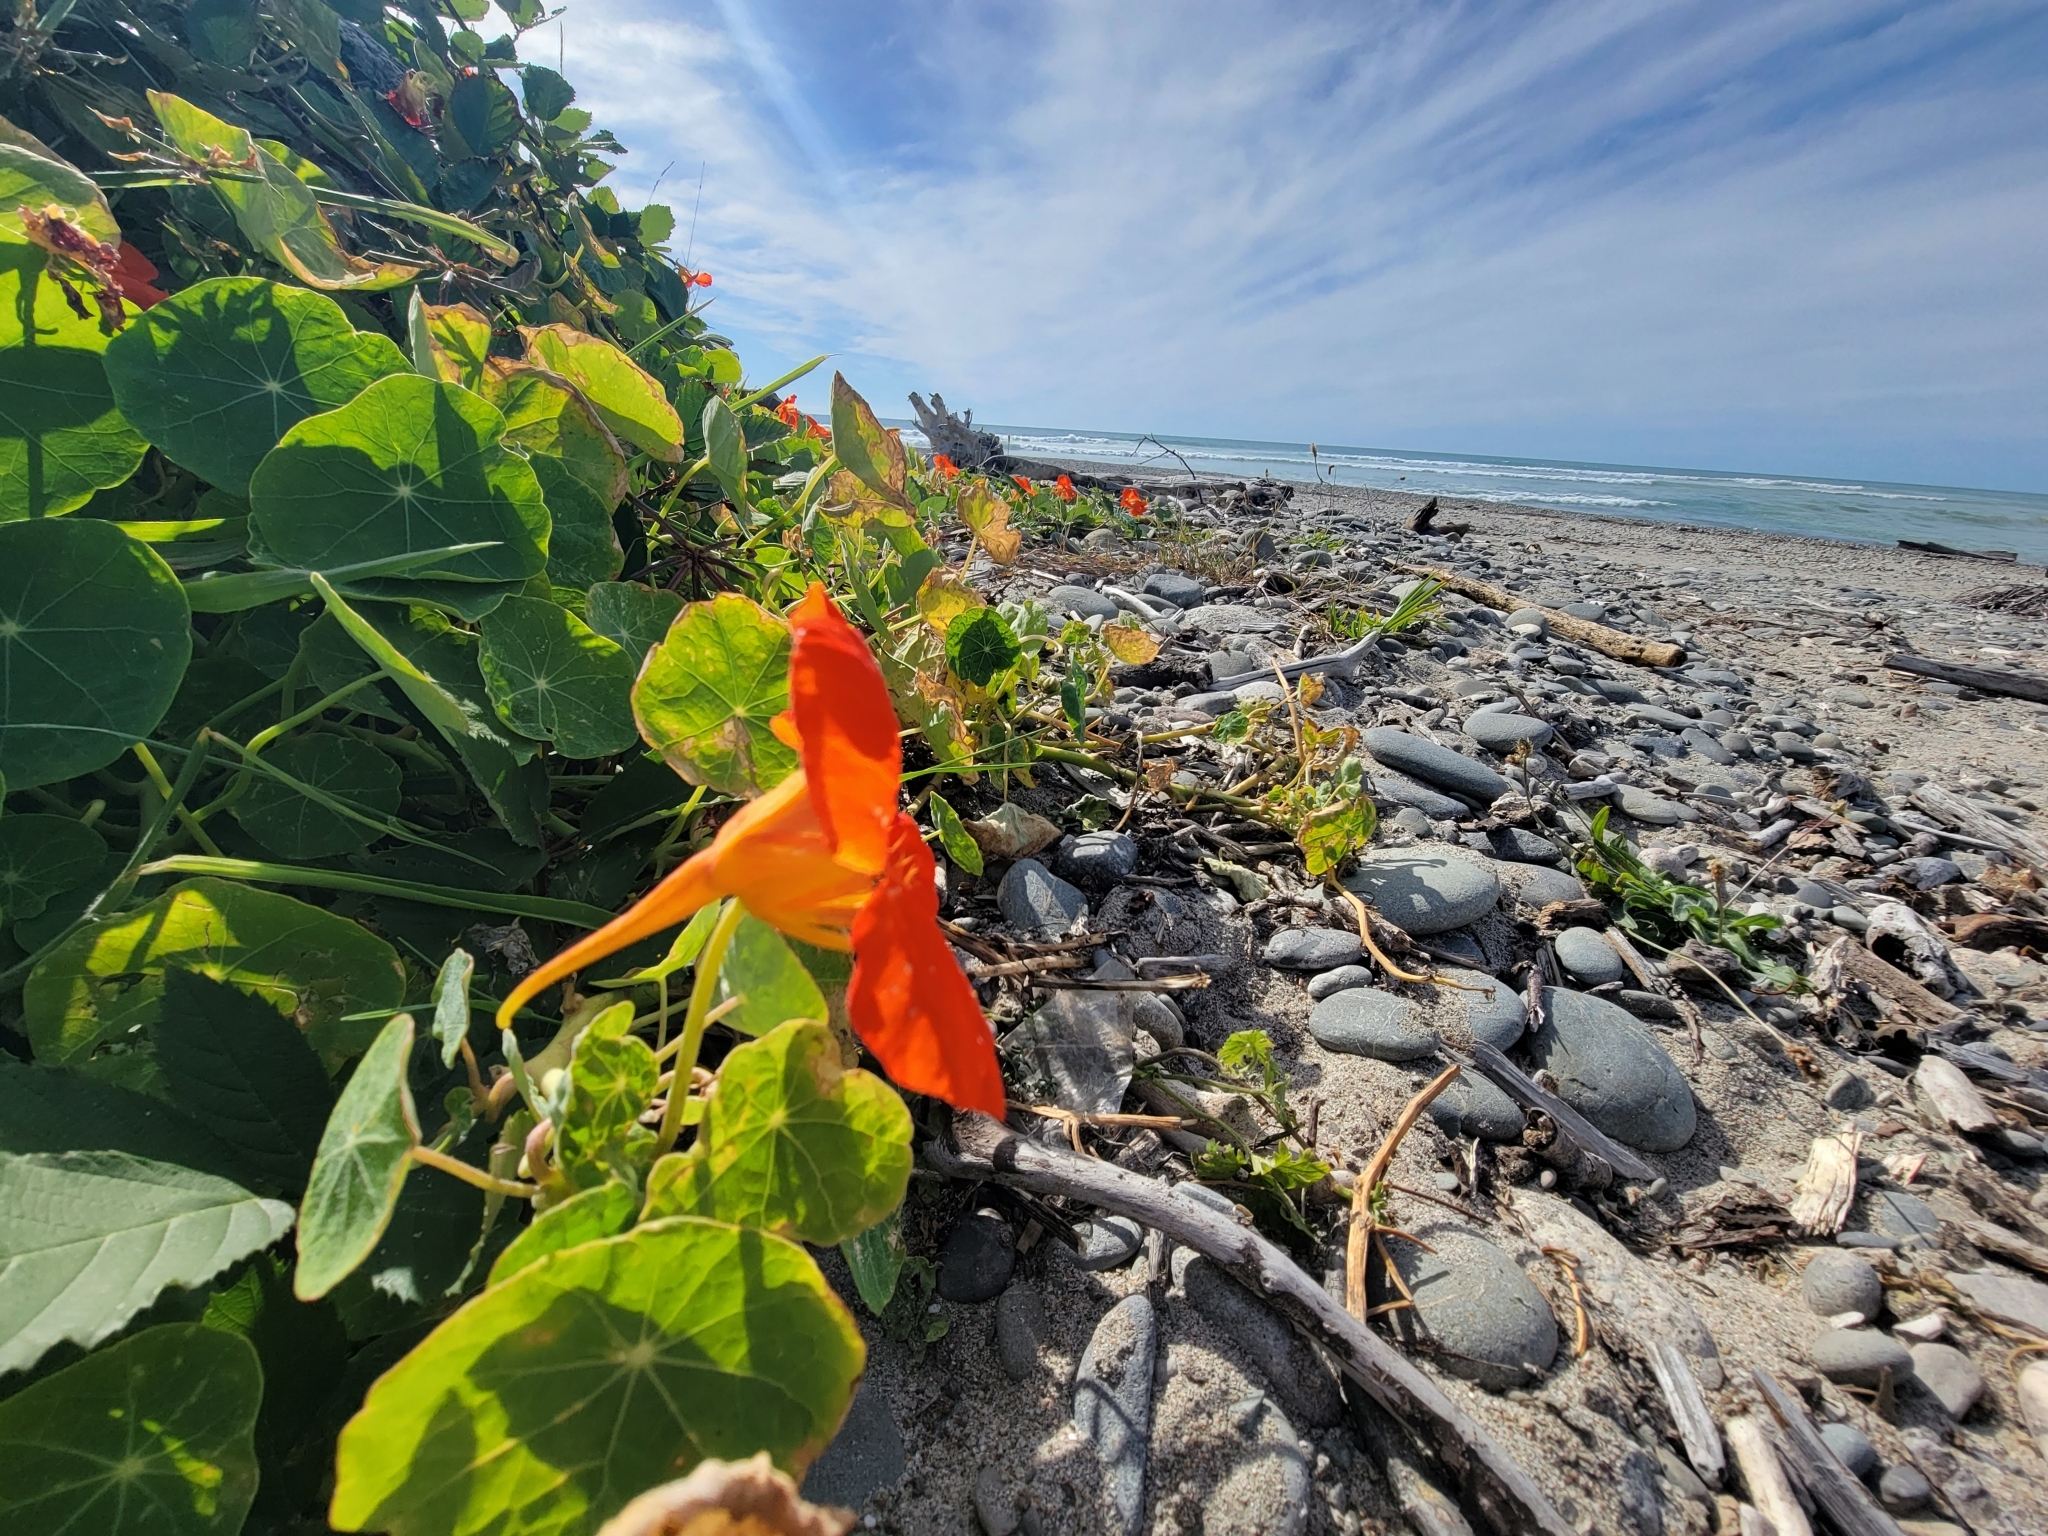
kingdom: Plantae
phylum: Tracheophyta
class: Magnoliopsida
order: Brassicales
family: Tropaeolaceae
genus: Tropaeolum
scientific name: Tropaeolum majus
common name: Nasturtium
